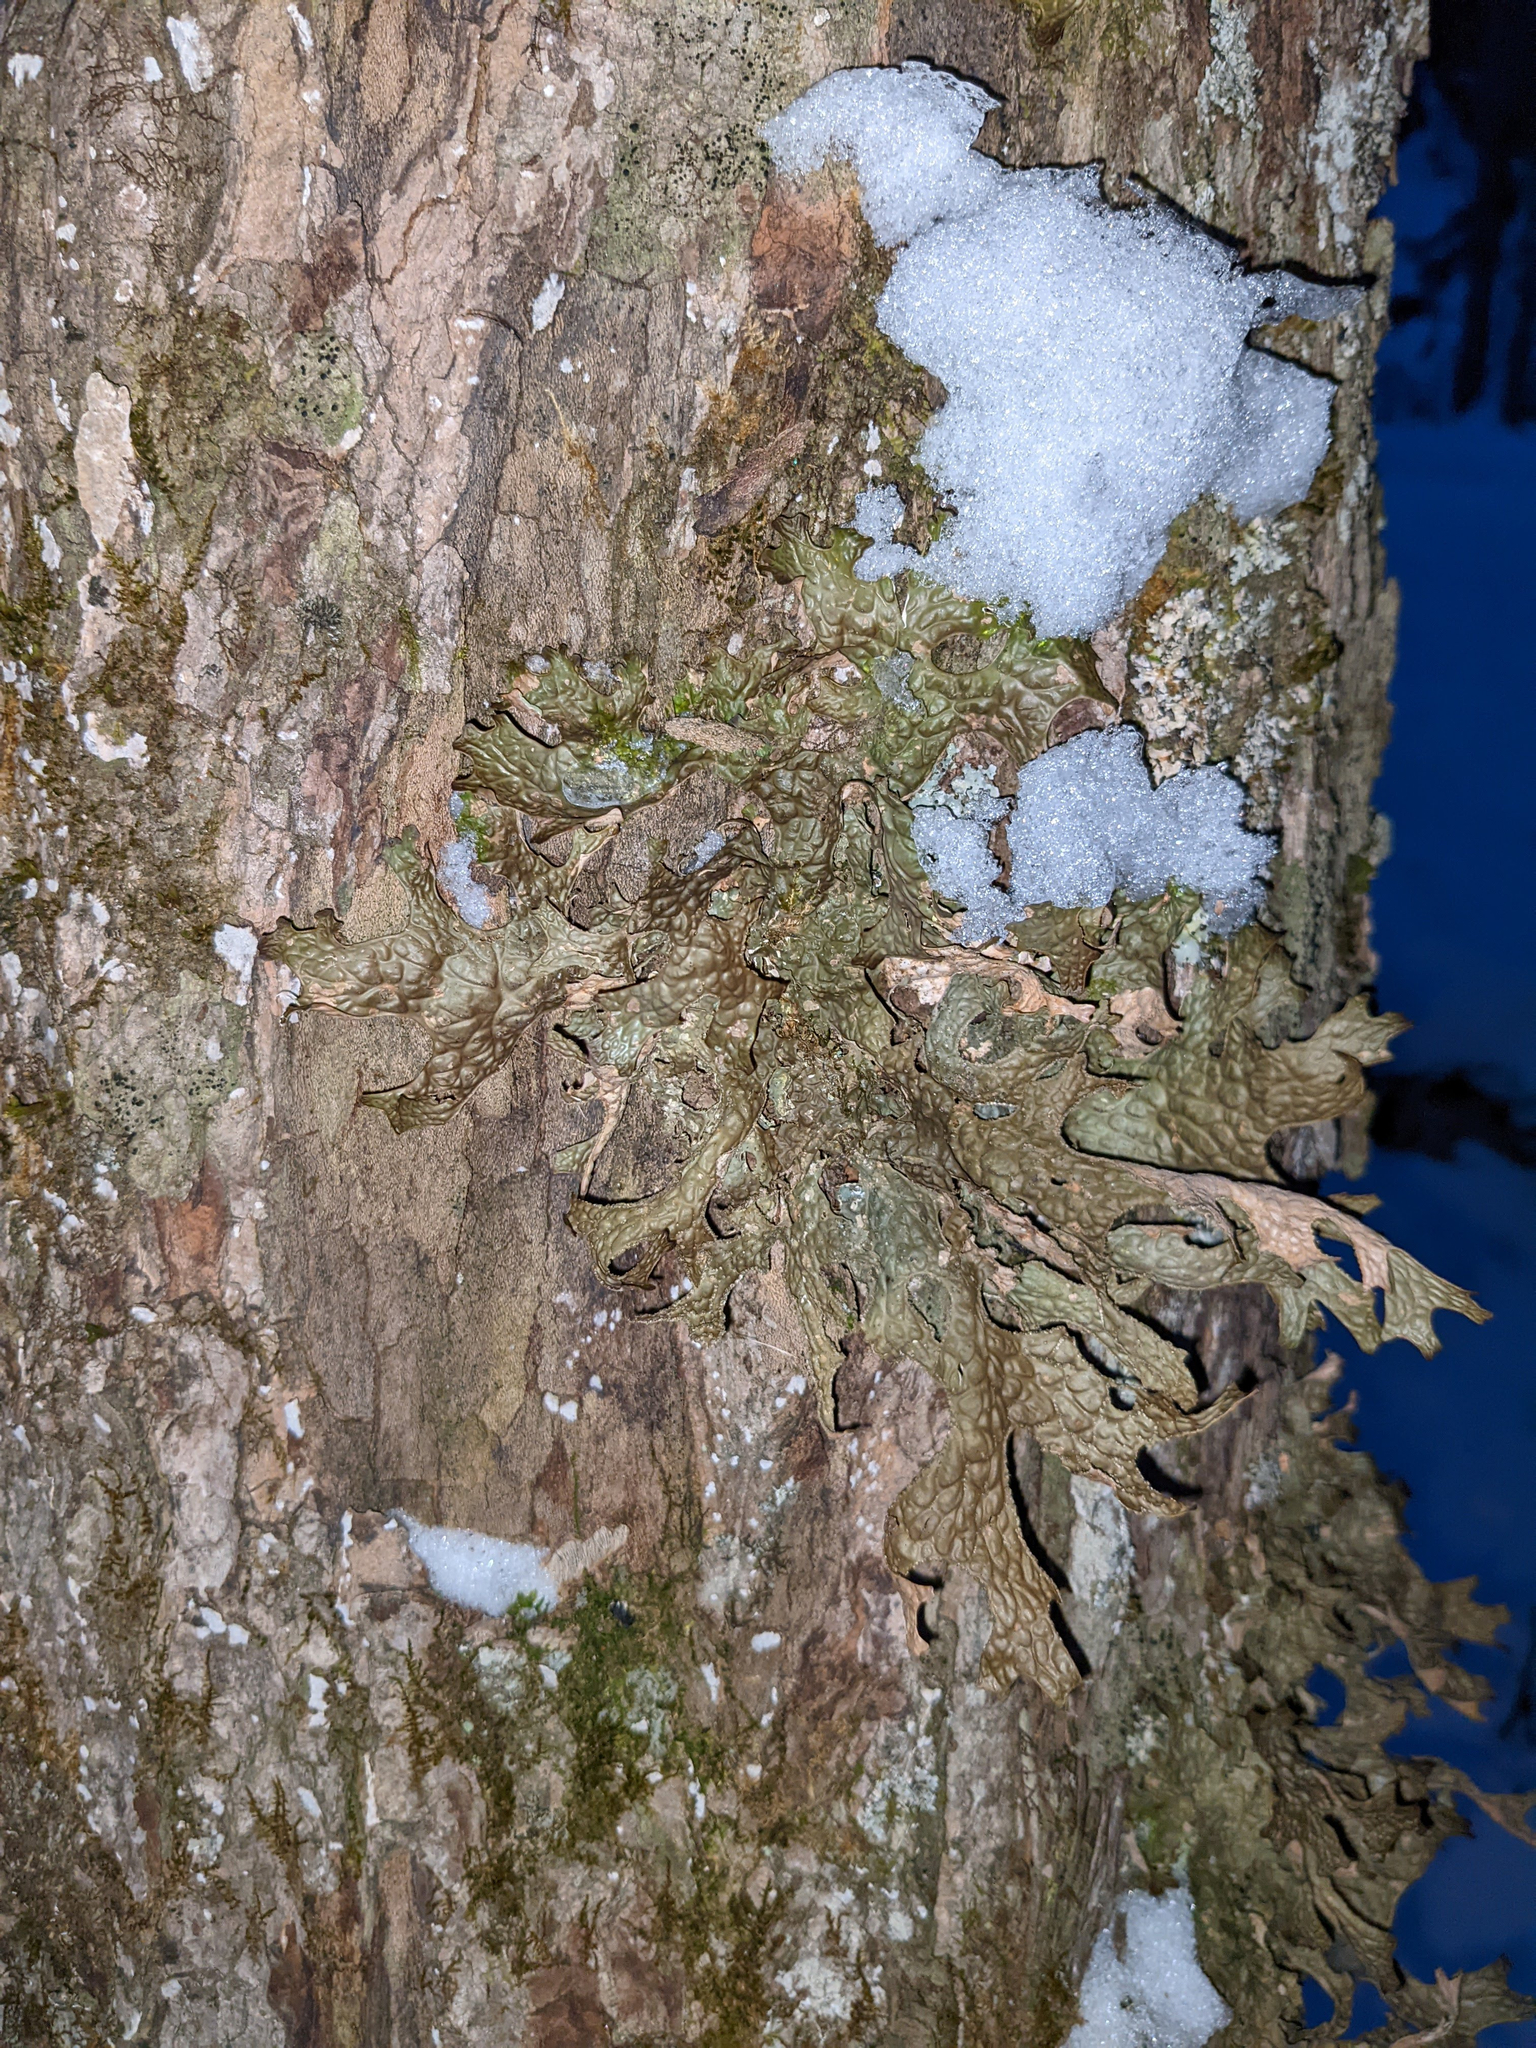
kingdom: Fungi
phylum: Ascomycota
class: Lecanoromycetes
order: Peltigerales
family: Lobariaceae
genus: Lobaria
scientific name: Lobaria pulmonaria
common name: Lungwort
